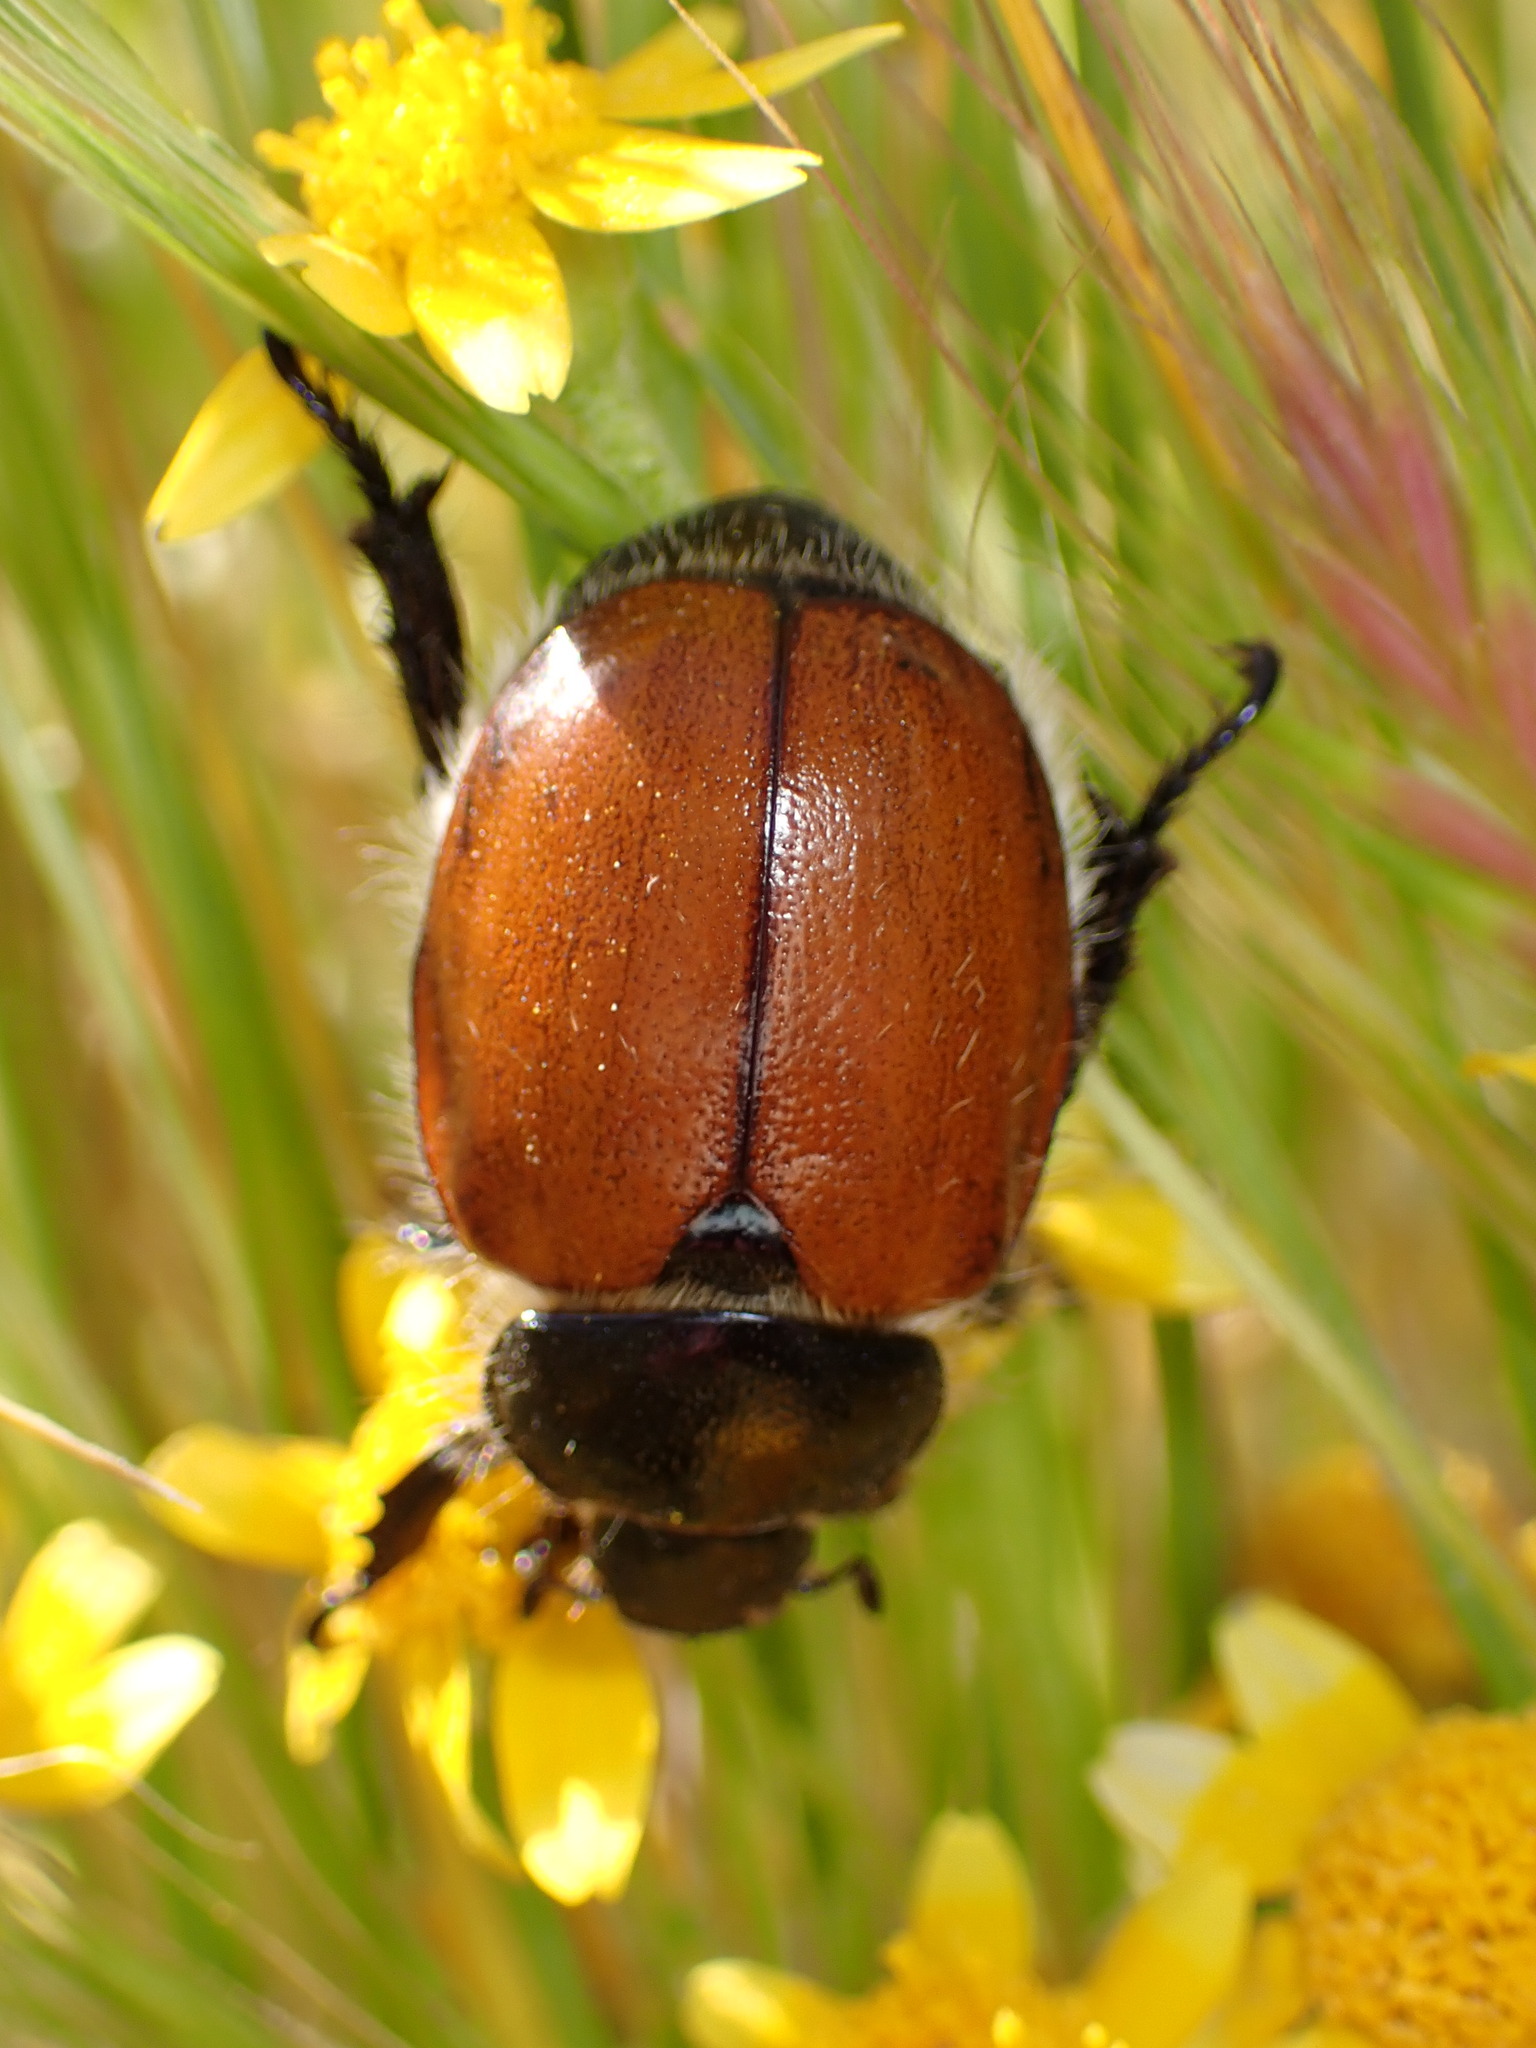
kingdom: Animalia
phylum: Arthropoda
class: Insecta
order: Coleoptera
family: Scarabaeidae
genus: Paracotalpa
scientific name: Paracotalpa ursina
